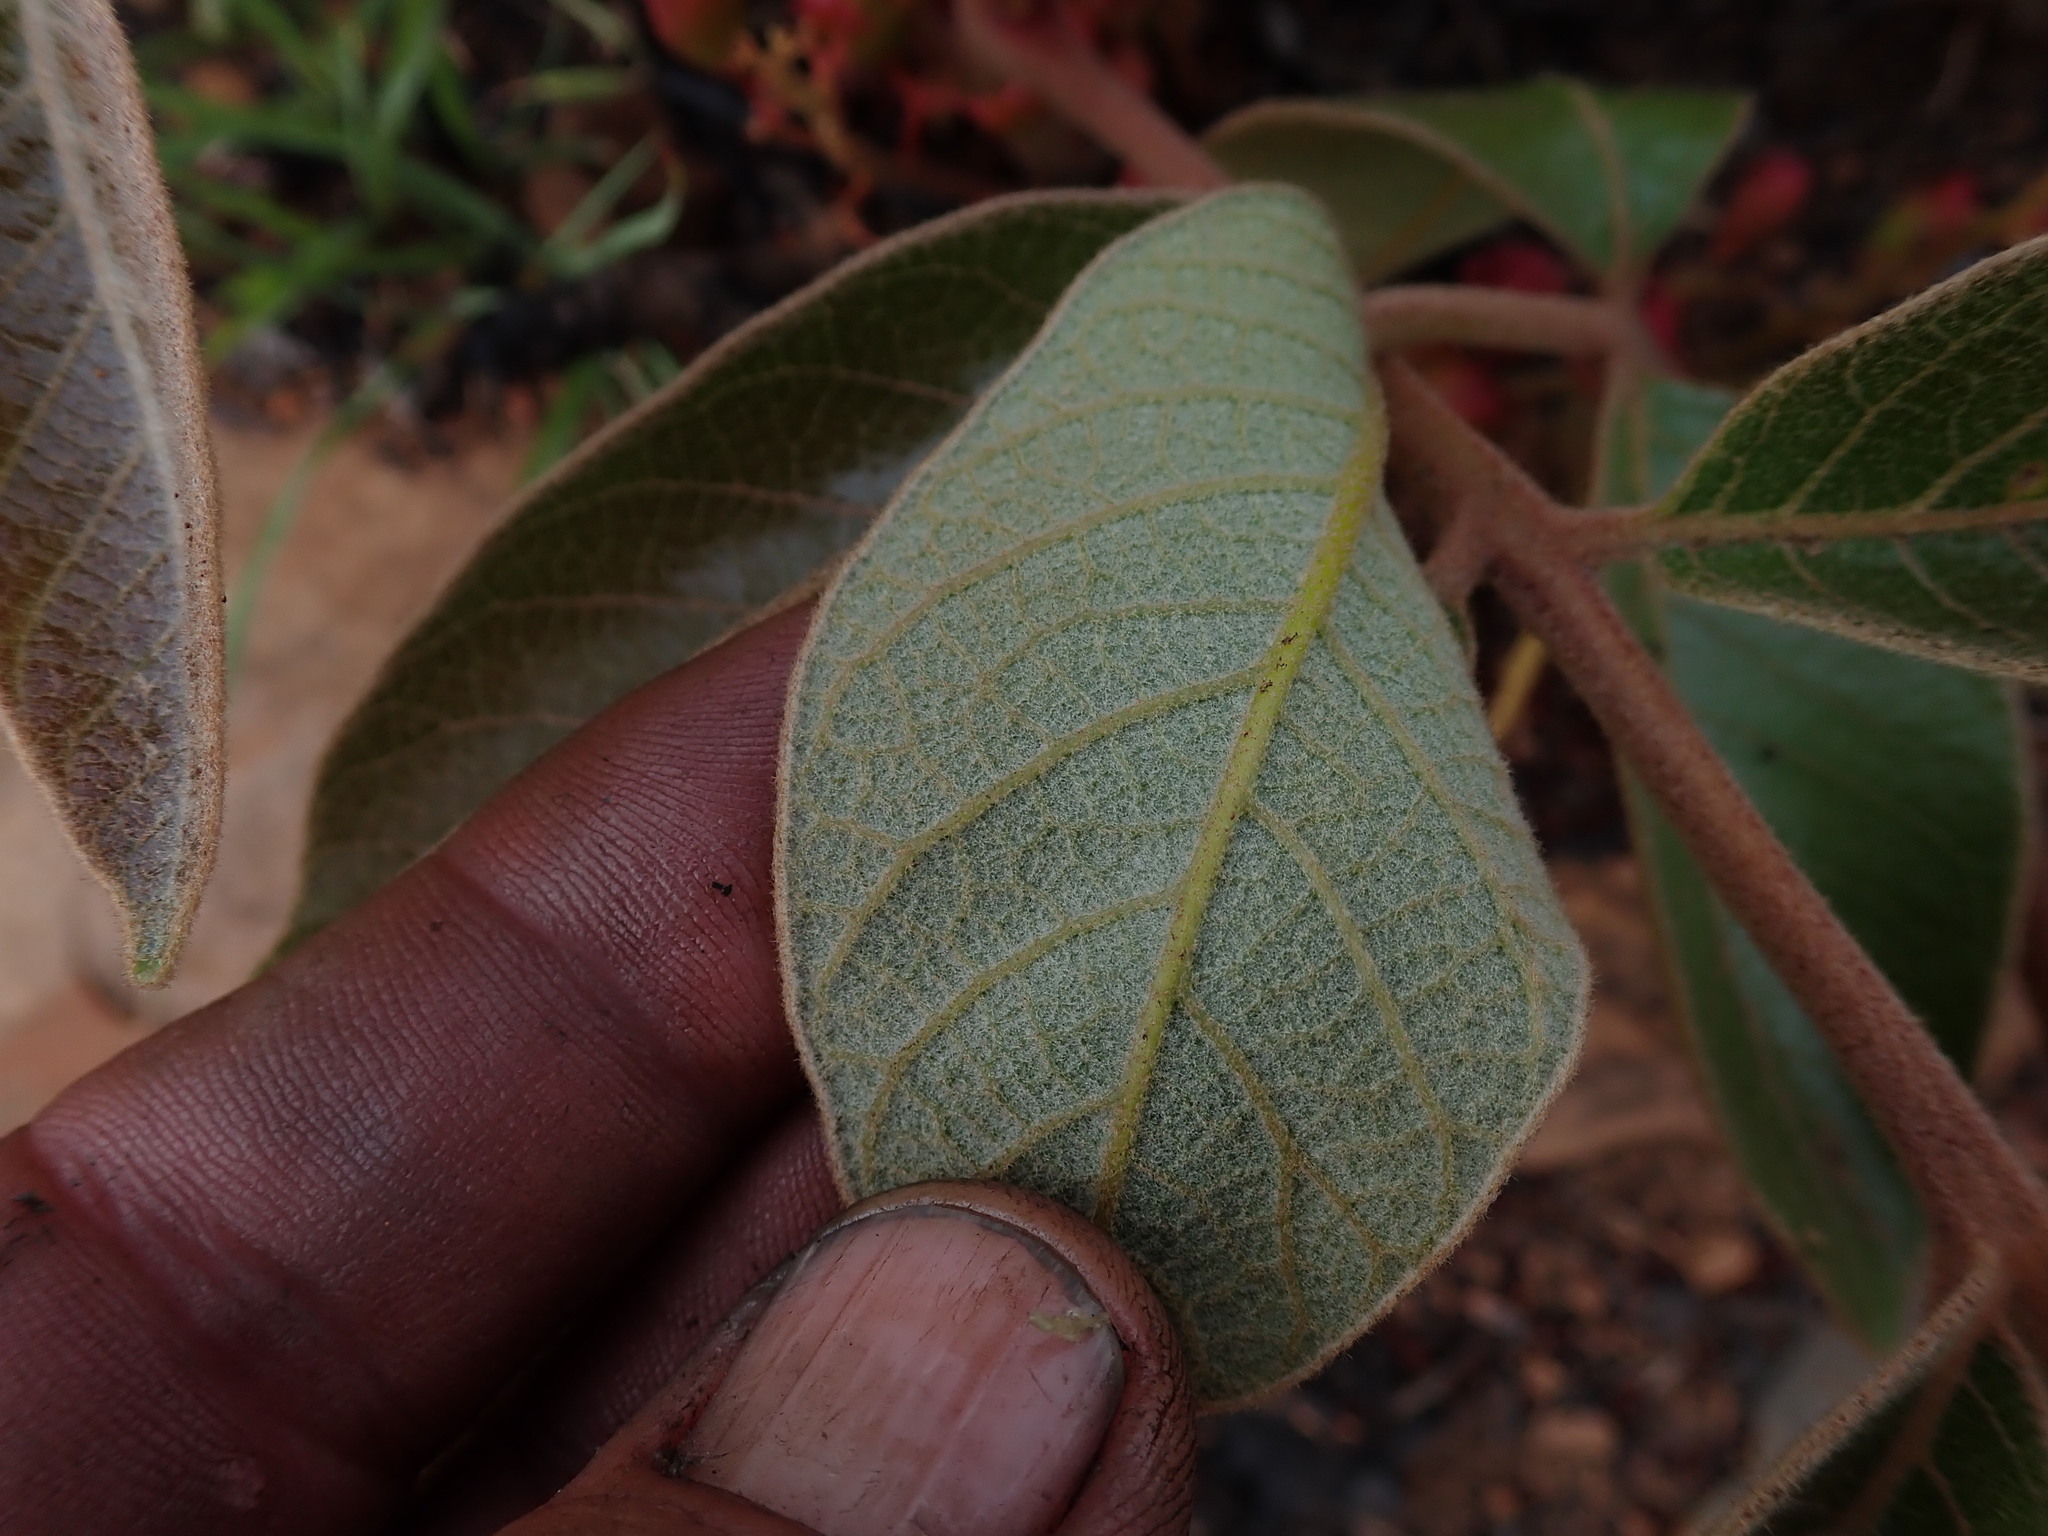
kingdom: Plantae
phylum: Tracheophyta
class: Magnoliopsida
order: Sapindales
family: Anacardiaceae
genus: Lannea
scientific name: Lannea edulis
